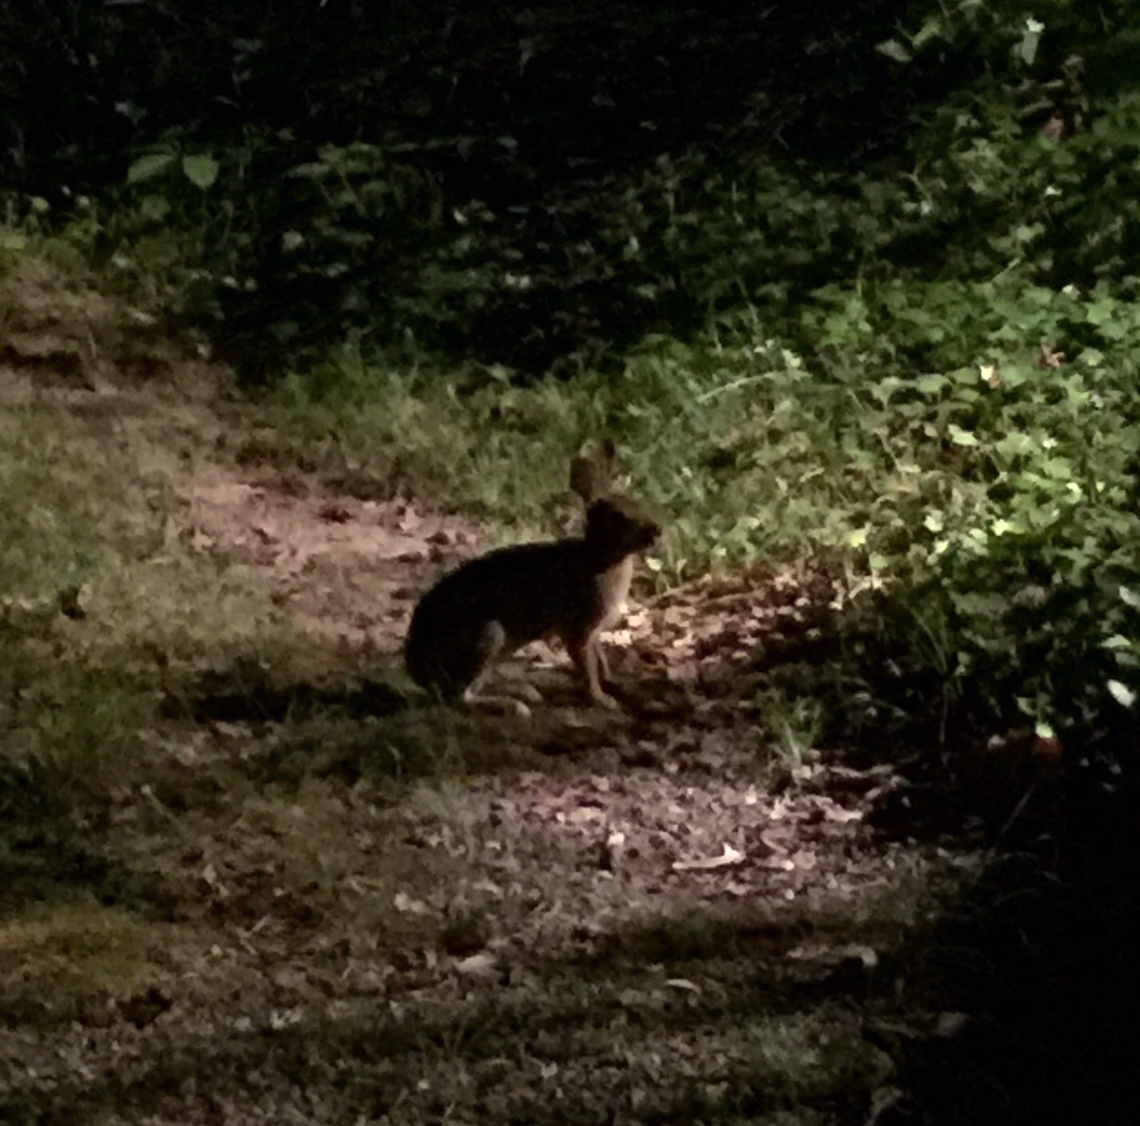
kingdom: Animalia
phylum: Chordata
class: Mammalia
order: Lagomorpha
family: Leporidae
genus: Sylvilagus
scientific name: Sylvilagus floridanus
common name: Eastern cottontail
